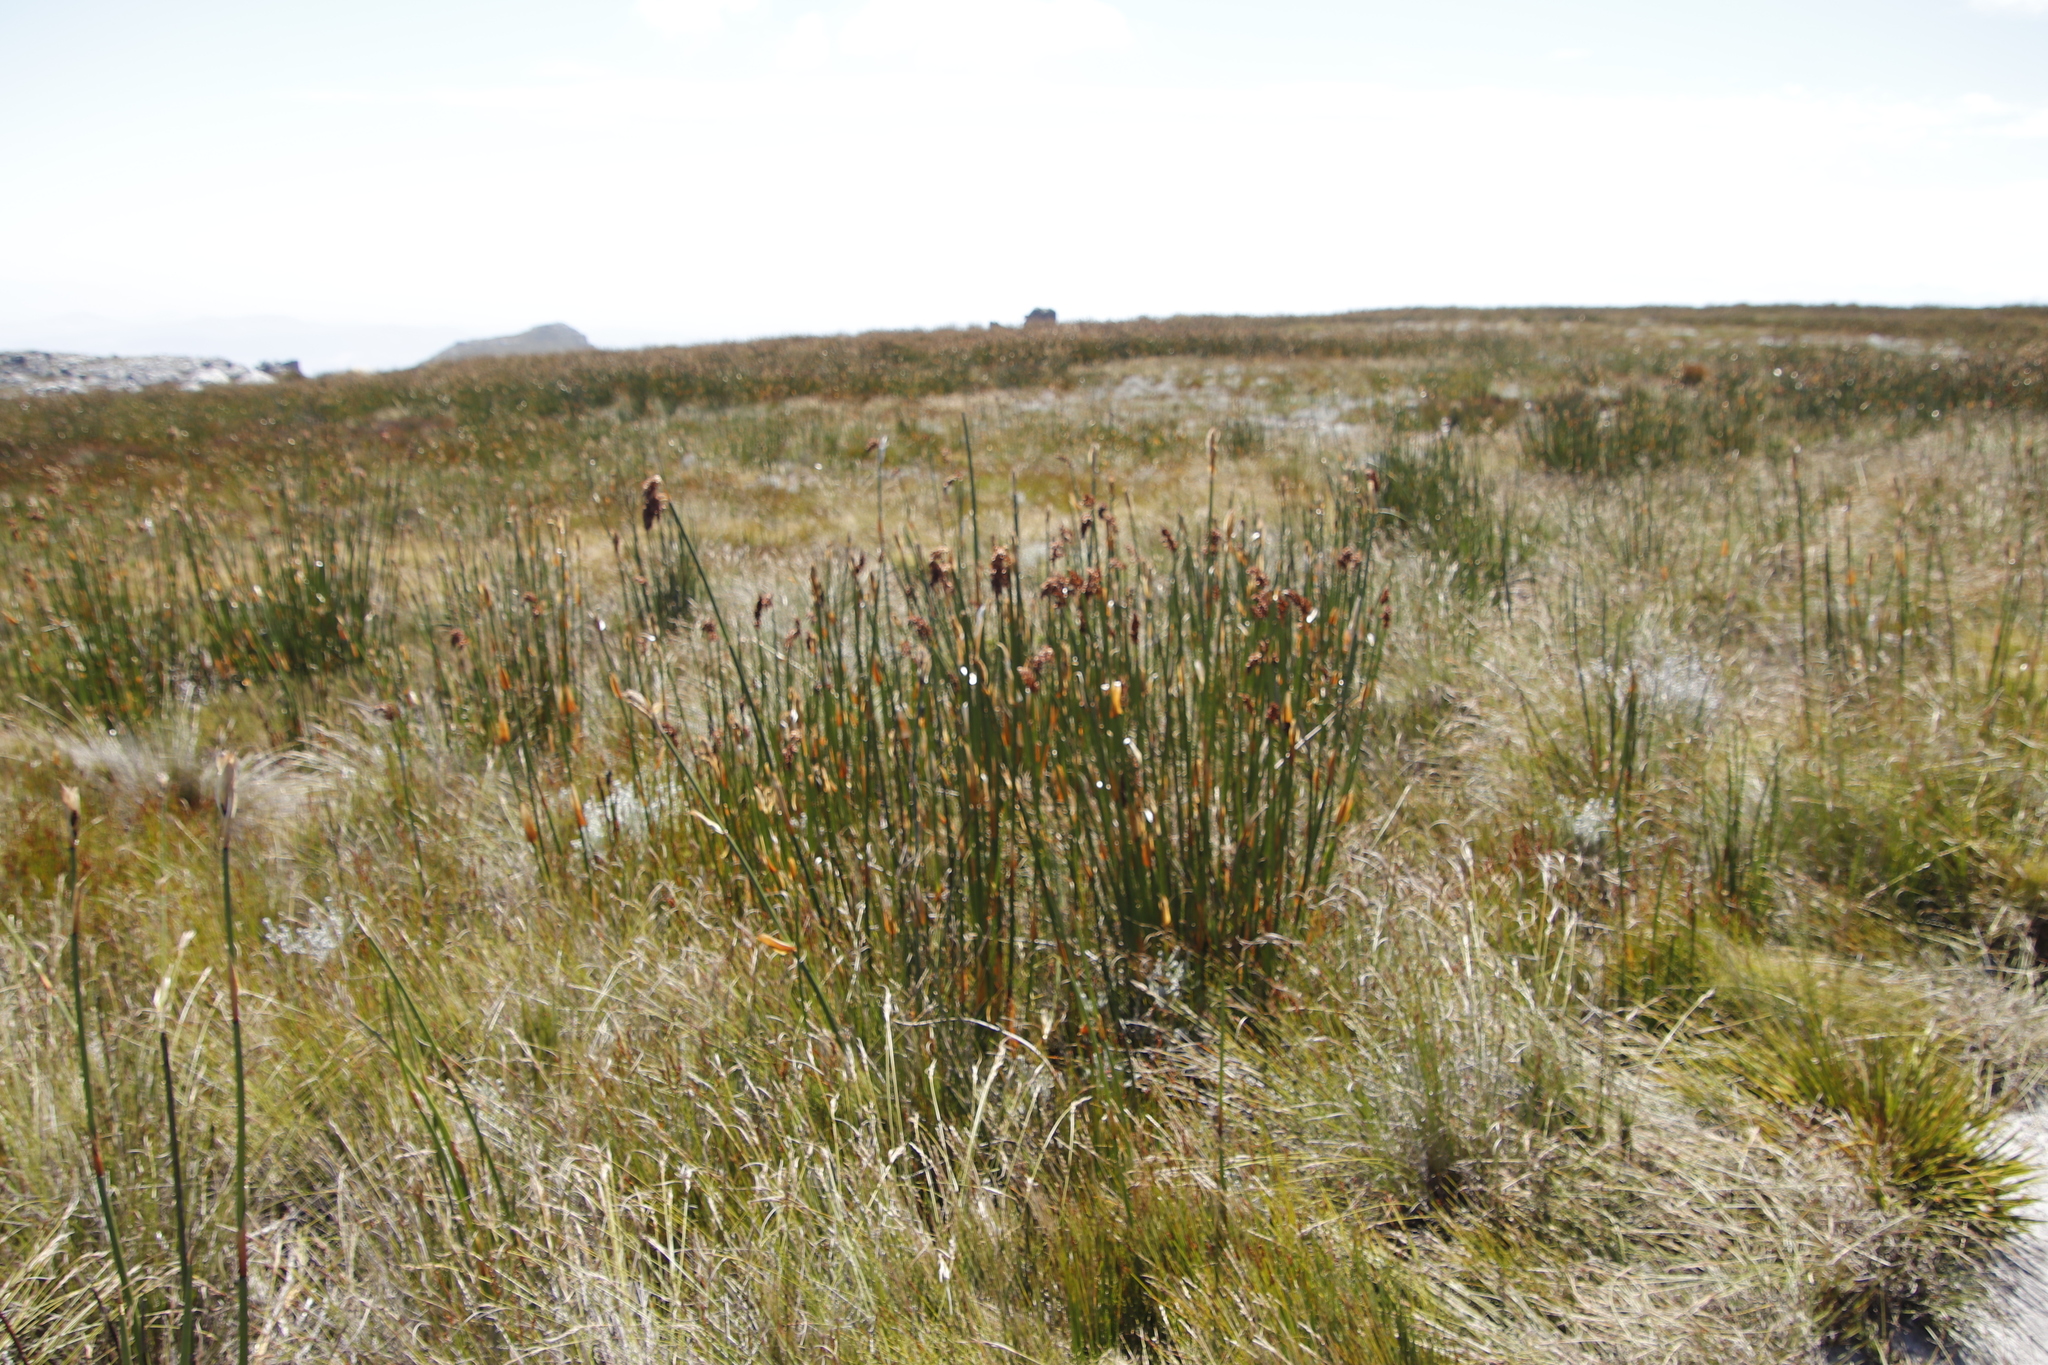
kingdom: Plantae
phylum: Tracheophyta
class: Liliopsida
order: Poales
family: Restionaceae
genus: Elegia
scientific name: Elegia mucronata
